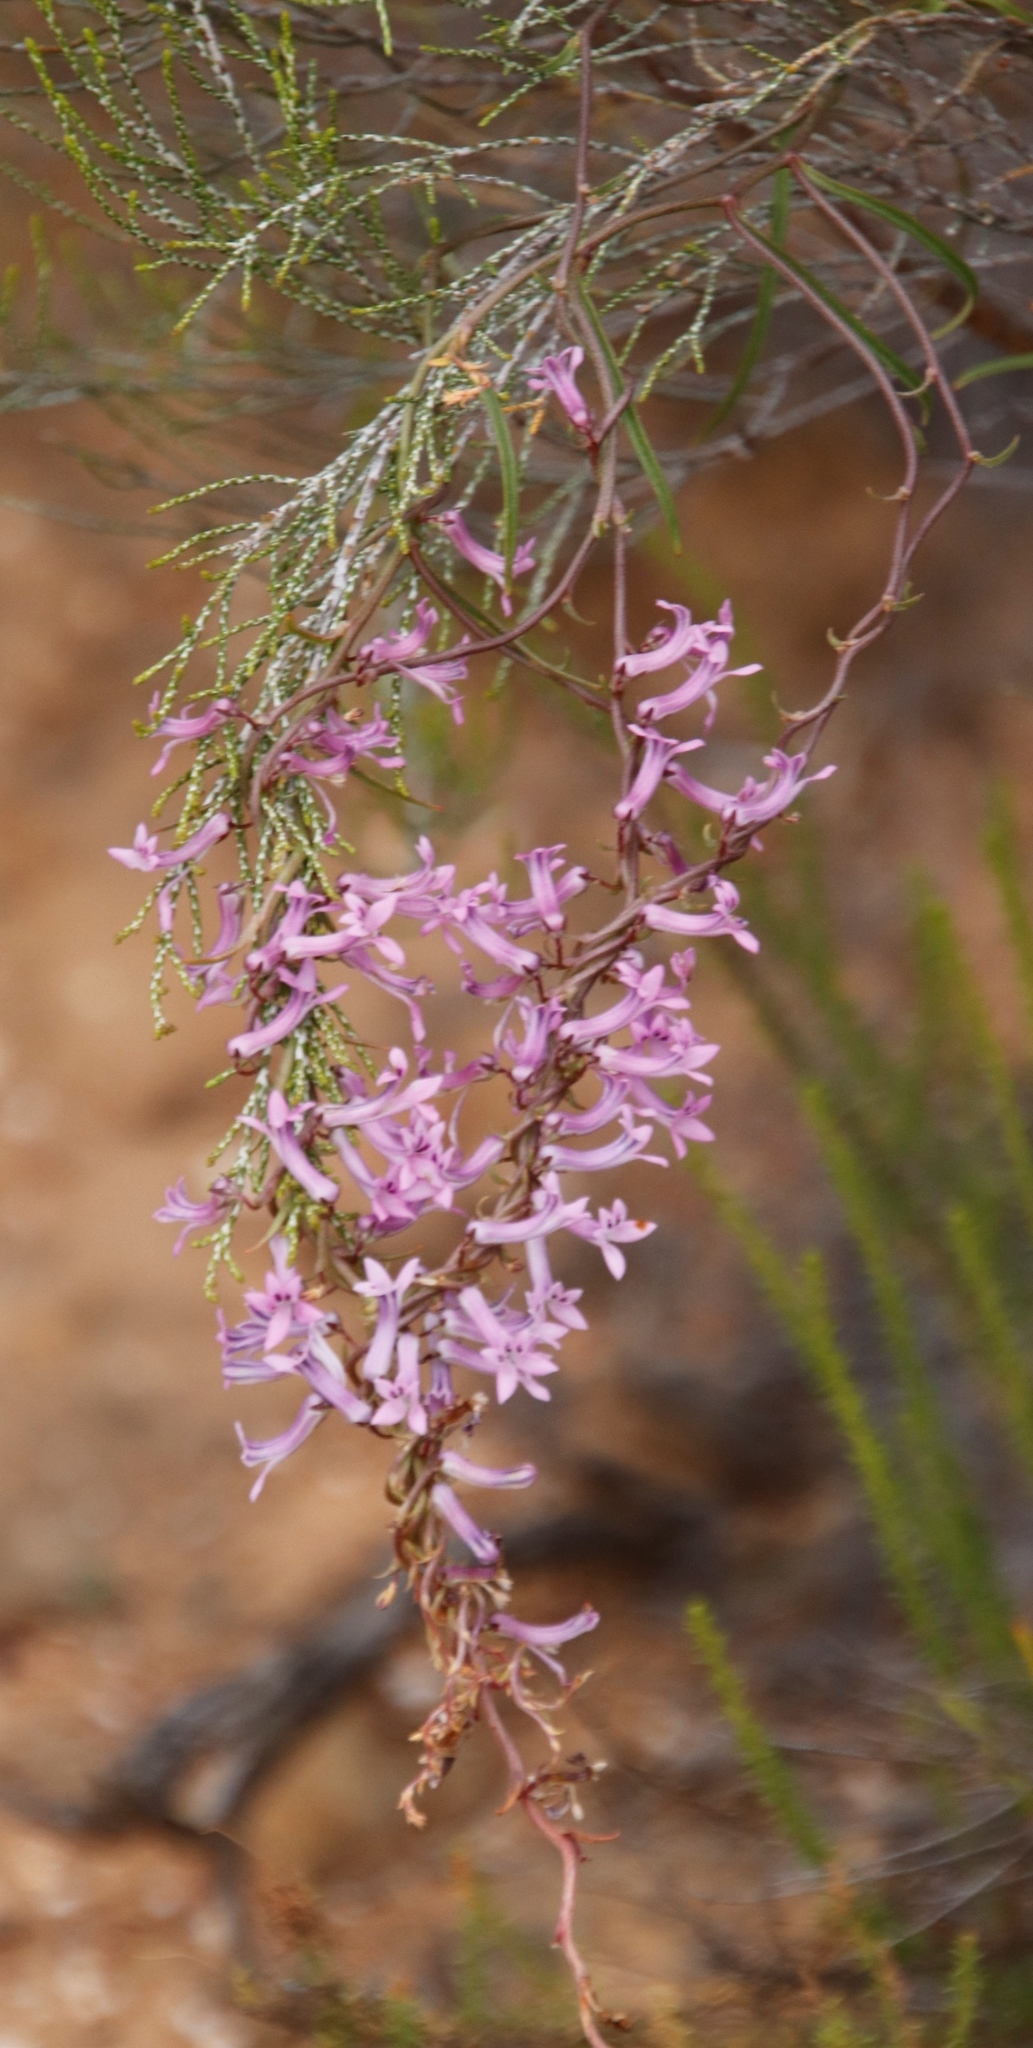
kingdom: Plantae
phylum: Tracheophyta
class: Magnoliopsida
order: Asterales
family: Campanulaceae
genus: Cyphia
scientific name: Cyphia digitata
